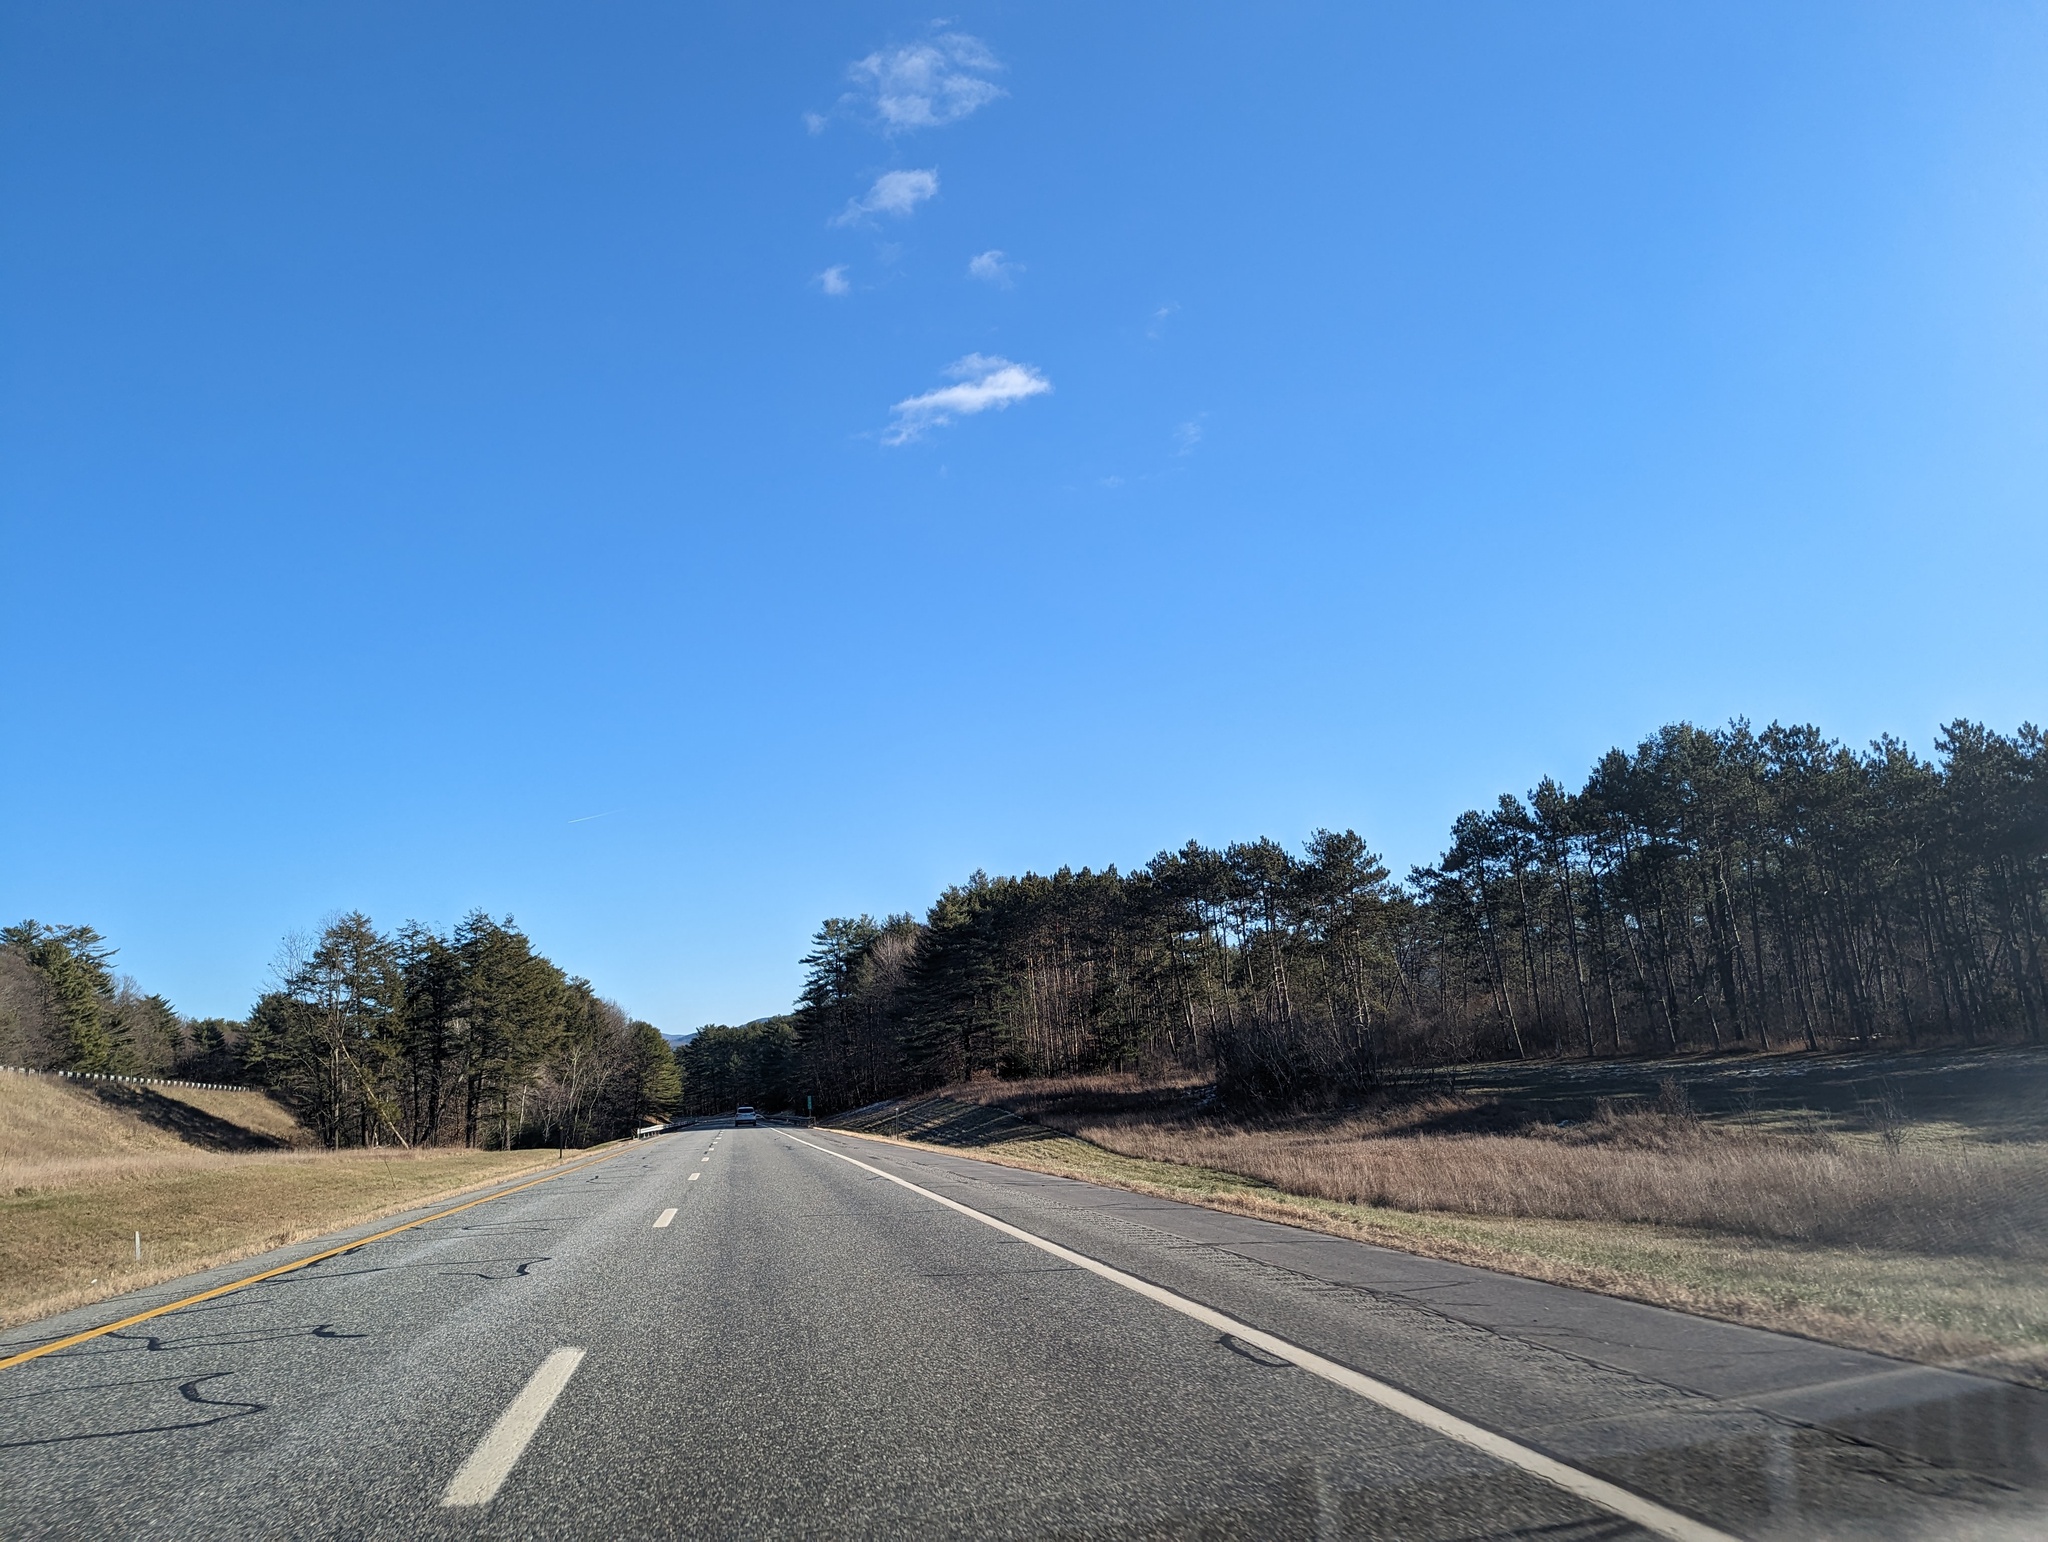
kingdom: Plantae
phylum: Tracheophyta
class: Pinopsida
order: Pinales
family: Pinaceae
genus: Pinus
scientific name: Pinus strobus
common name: Weymouth pine
